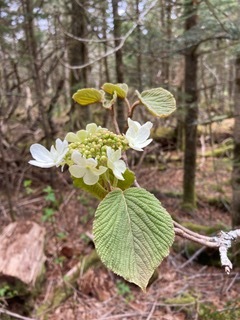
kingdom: Plantae
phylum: Tracheophyta
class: Magnoliopsida
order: Dipsacales
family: Viburnaceae
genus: Viburnum
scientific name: Viburnum lantanoides
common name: Hobblebush
